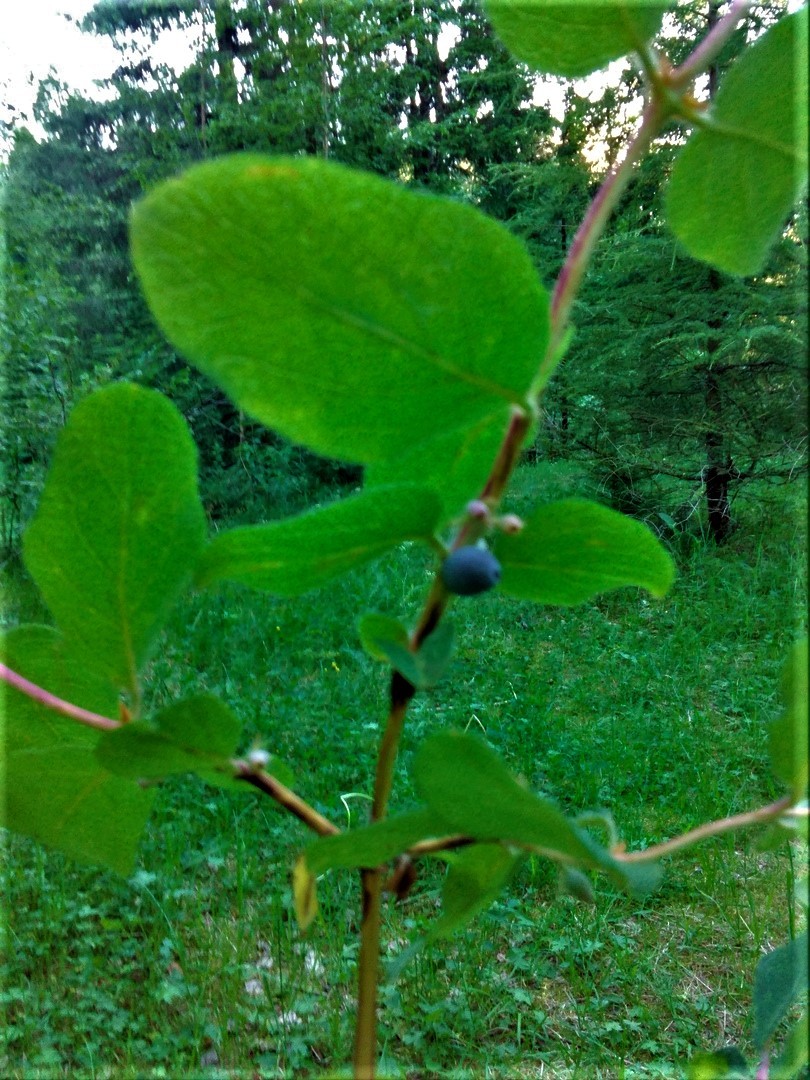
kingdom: Plantae
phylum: Tracheophyta
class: Magnoliopsida
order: Dipsacales
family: Caprifoliaceae
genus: Lonicera
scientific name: Lonicera caerulea
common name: Blue honeysuckle
